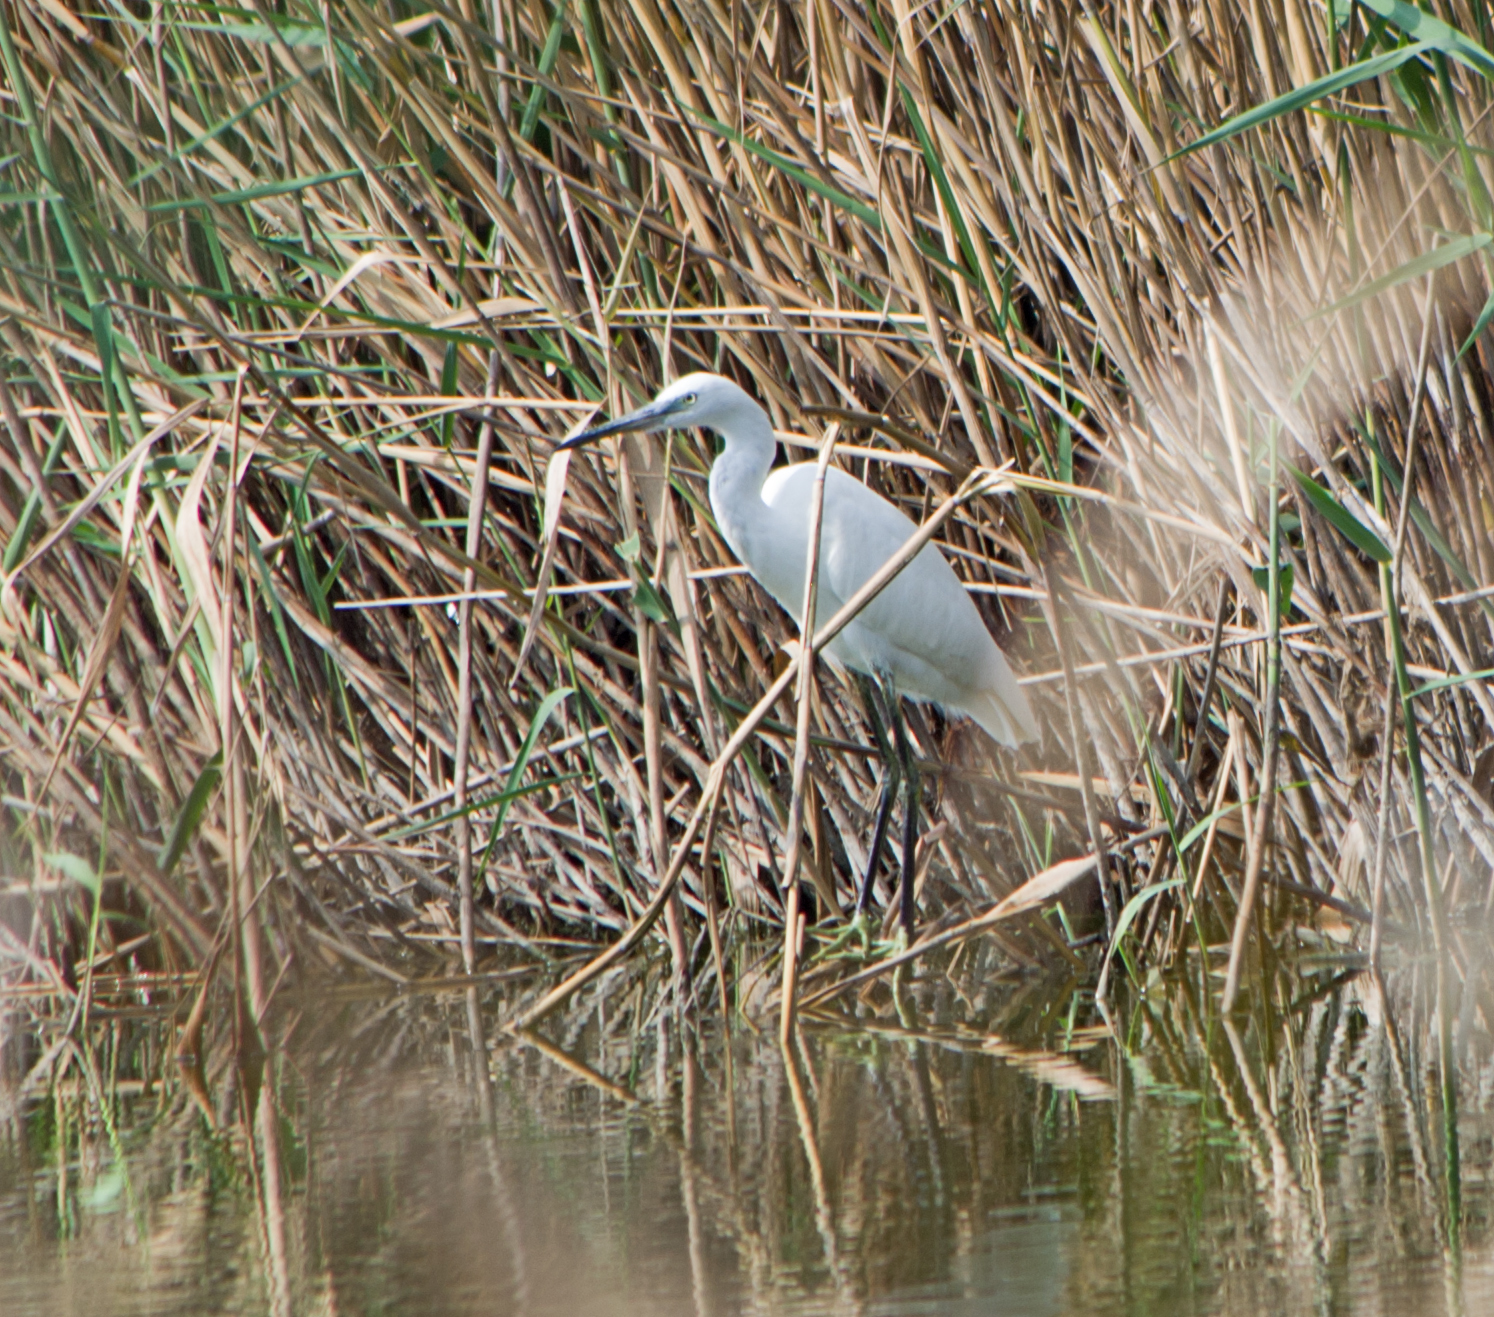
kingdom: Animalia
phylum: Chordata
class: Aves
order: Pelecaniformes
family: Ardeidae
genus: Egretta
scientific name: Egretta garzetta
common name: Little egret
